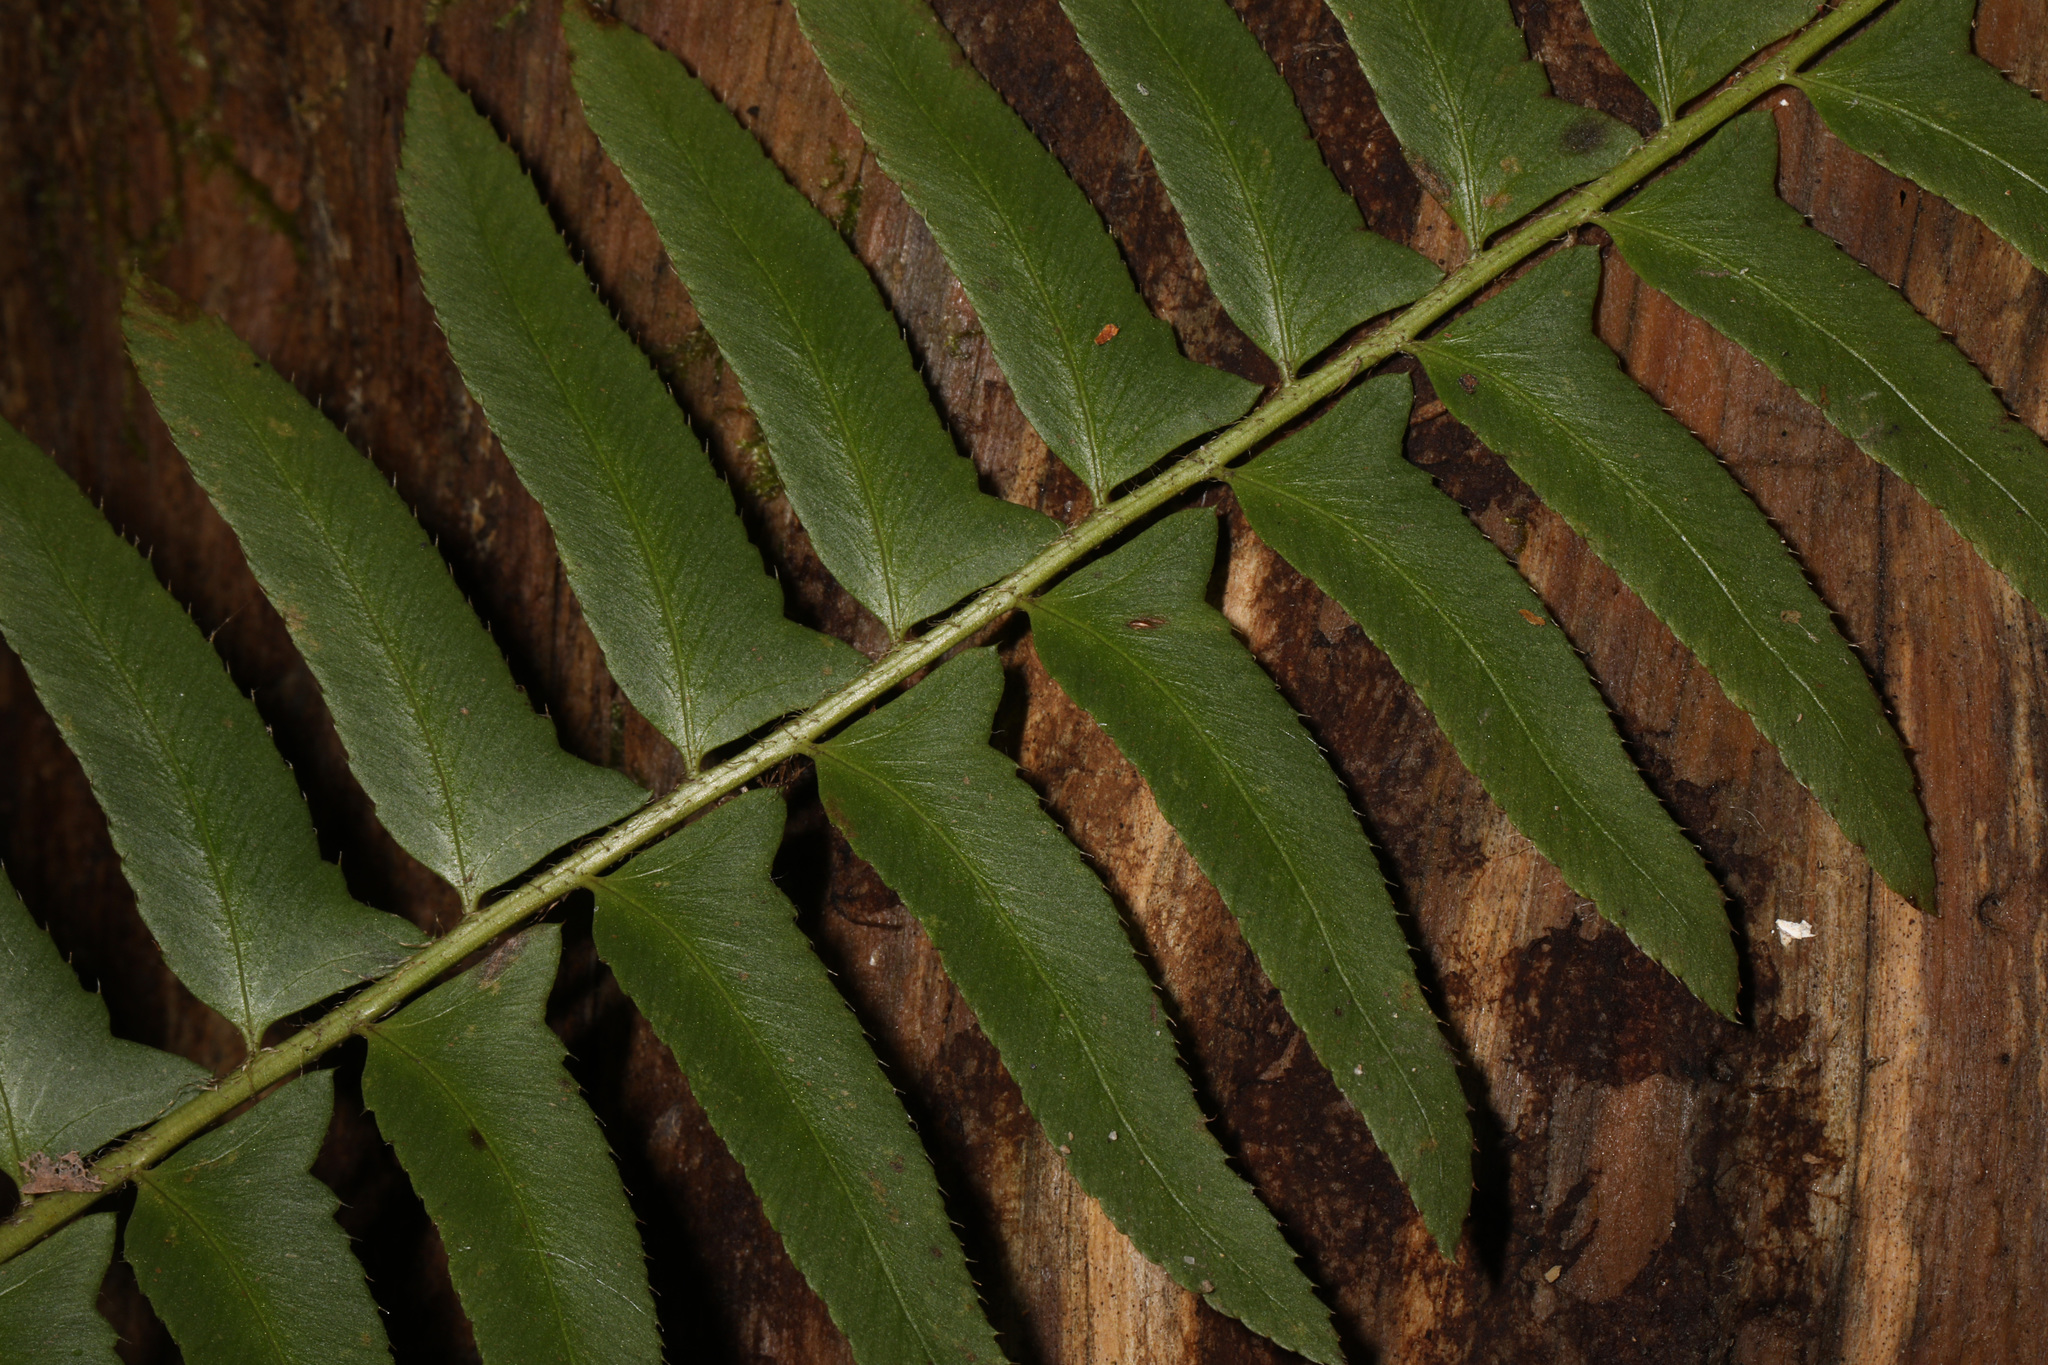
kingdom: Plantae
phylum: Tracheophyta
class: Polypodiopsida
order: Polypodiales
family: Dryopteridaceae
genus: Polystichum
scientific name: Polystichum acrostichoides
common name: Christmas fern
